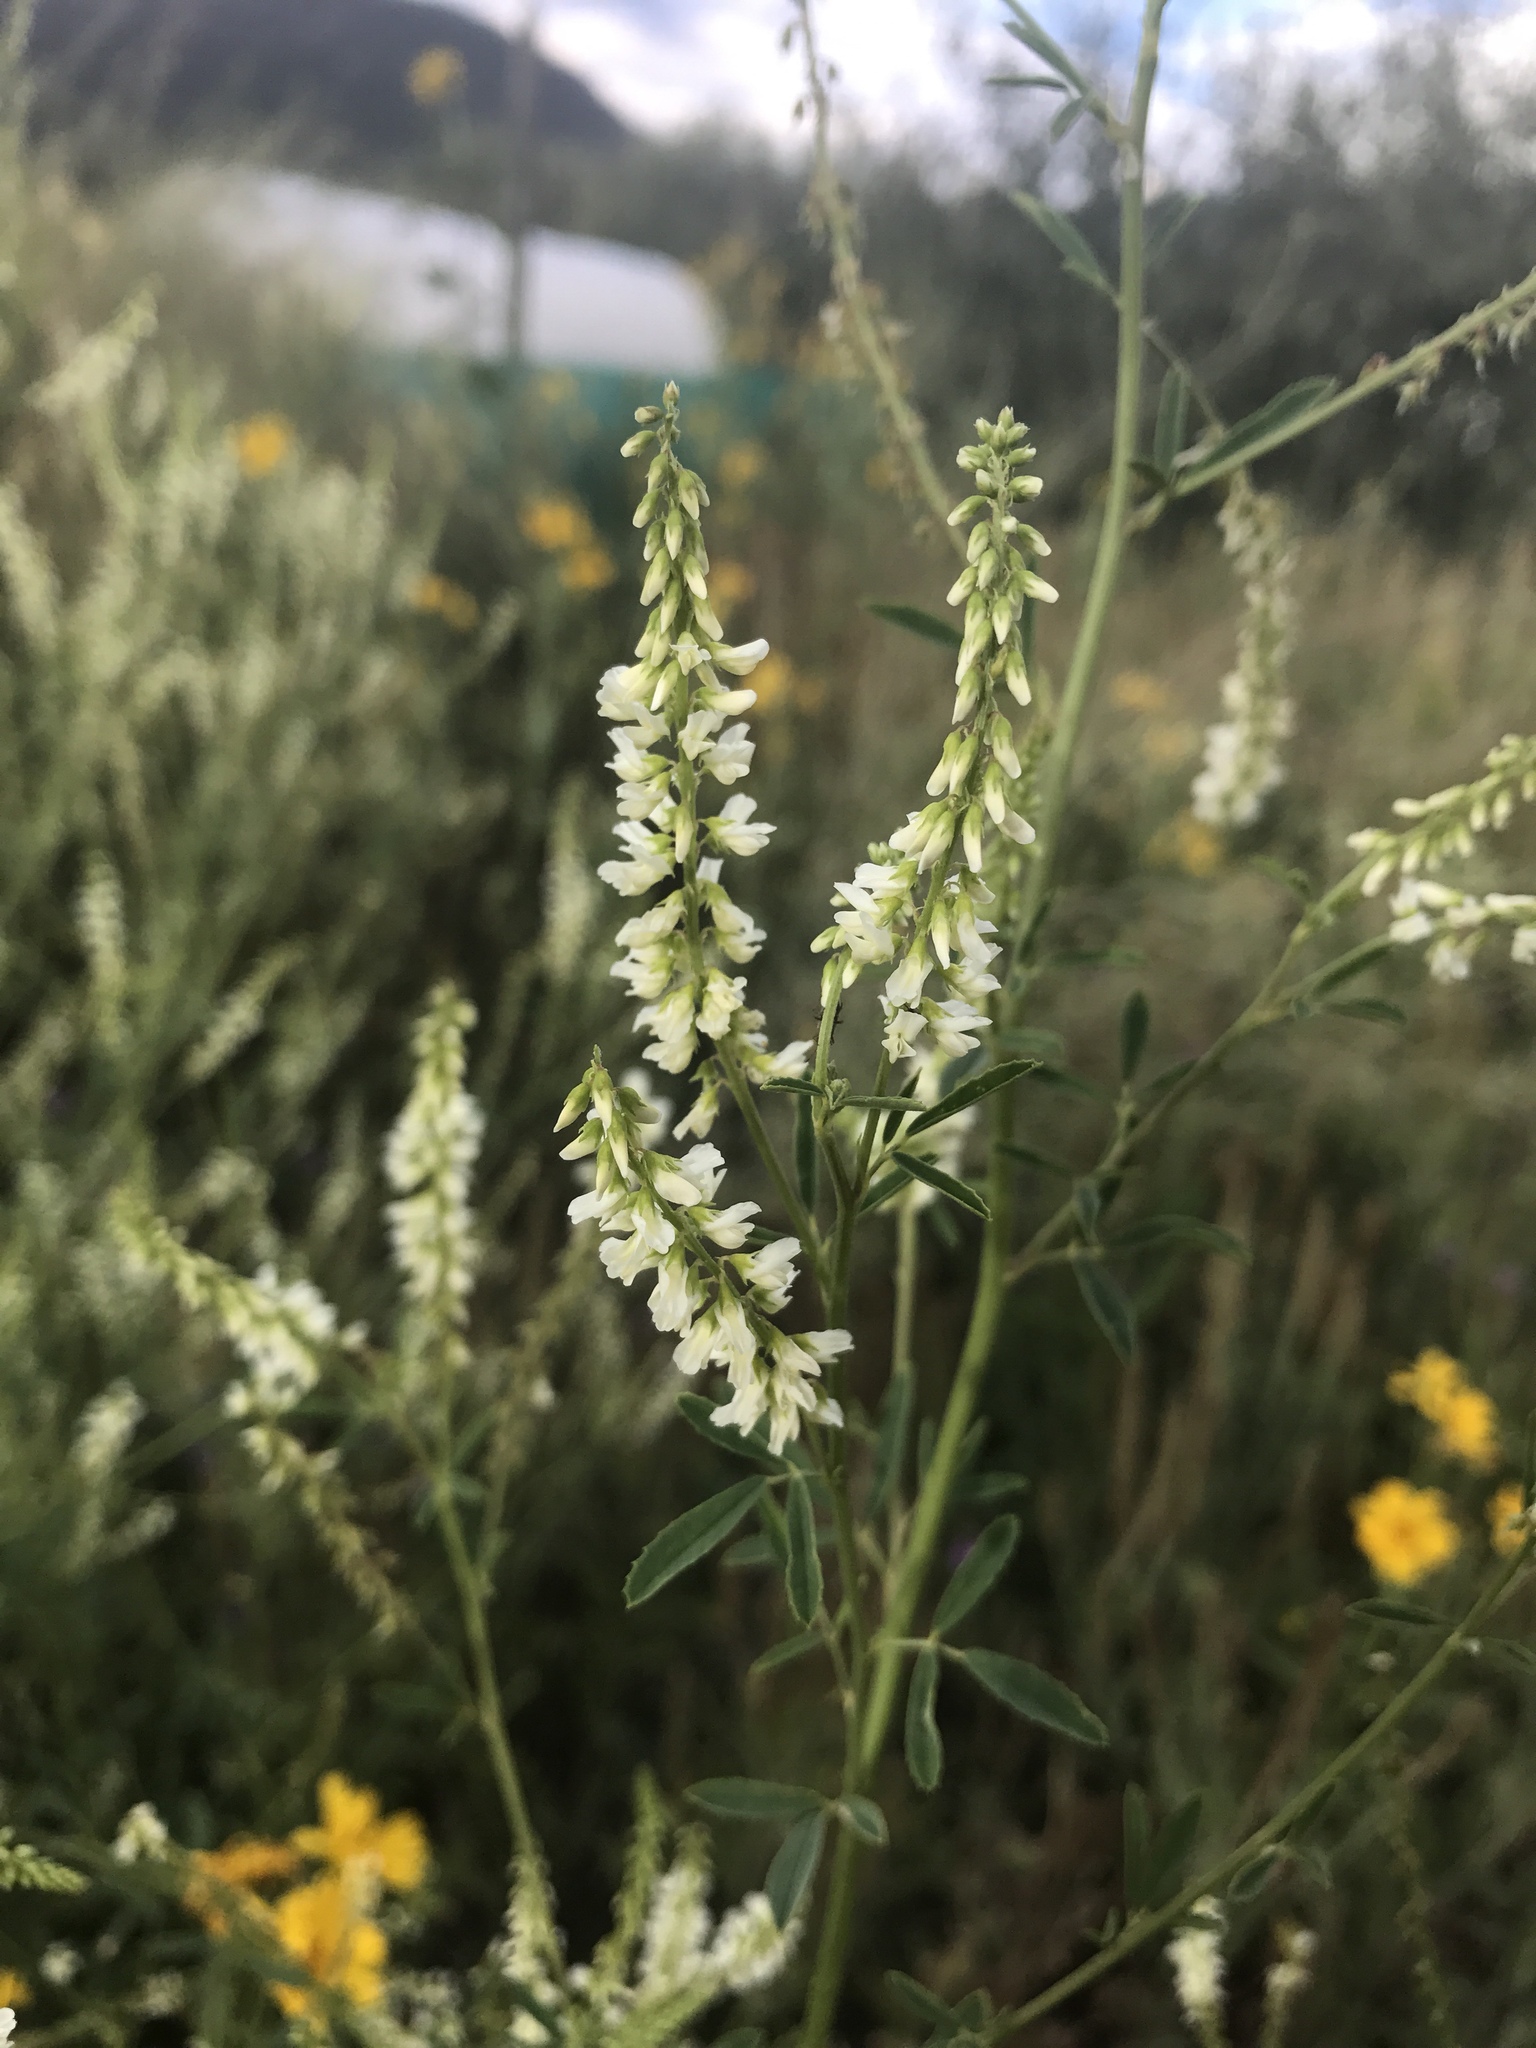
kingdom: Plantae
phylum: Tracheophyta
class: Magnoliopsida
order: Fabales
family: Fabaceae
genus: Melilotus
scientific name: Melilotus albus
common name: White melilot
